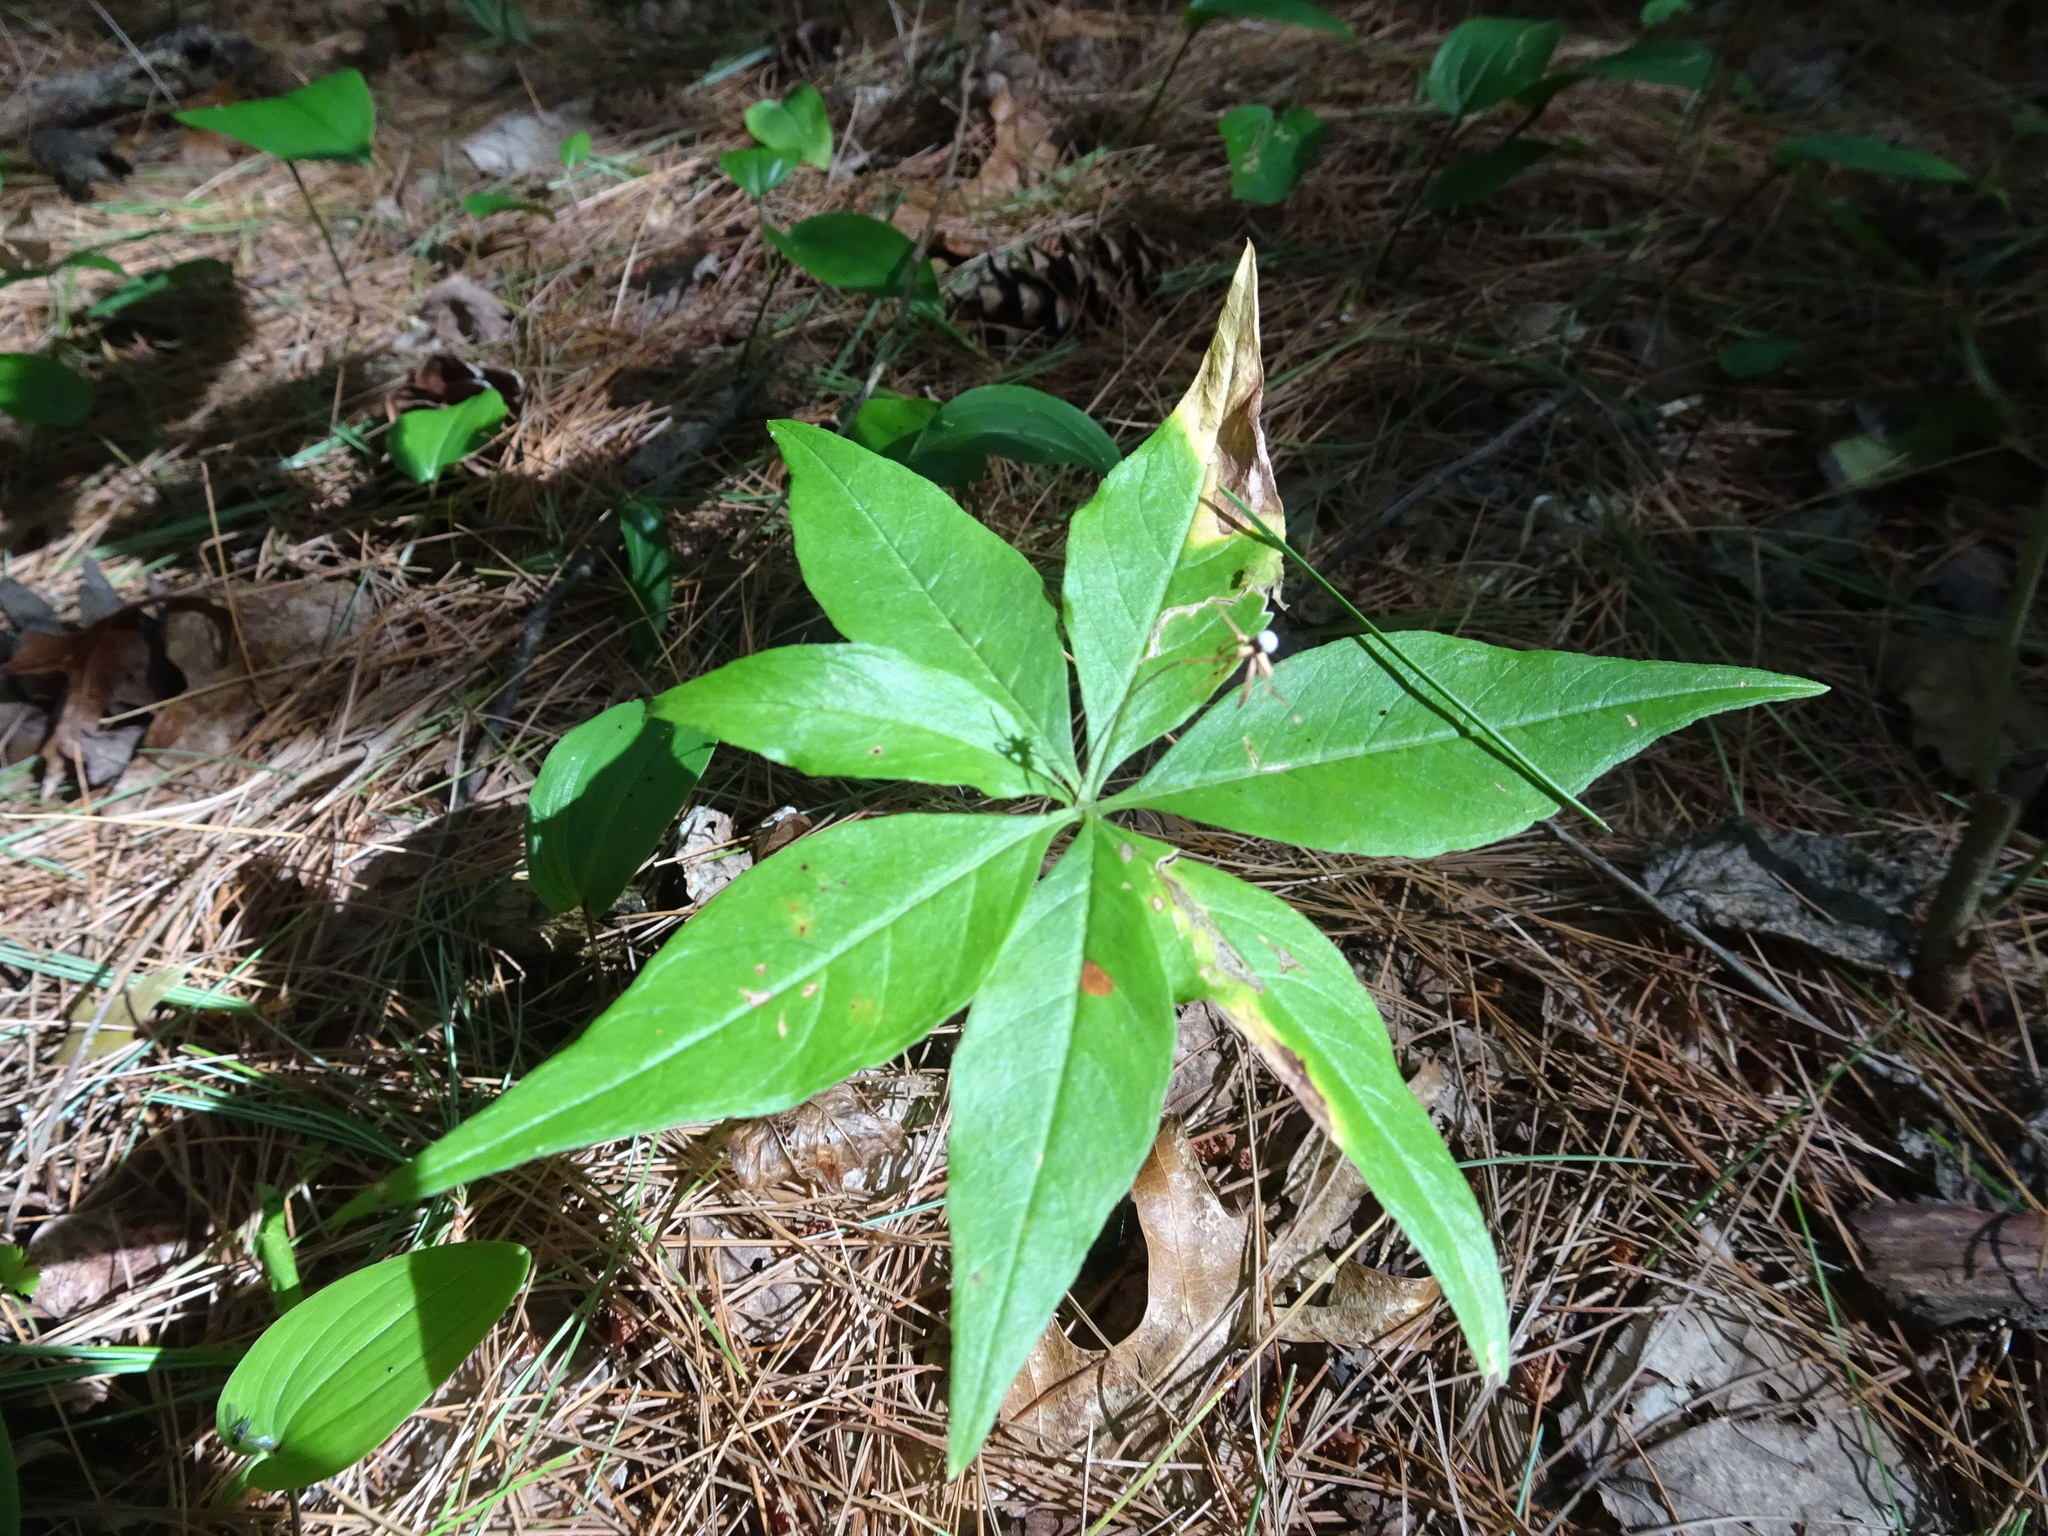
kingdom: Plantae
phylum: Tracheophyta
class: Magnoliopsida
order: Ericales
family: Primulaceae
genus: Lysimachia
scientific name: Lysimachia borealis
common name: American starflower
